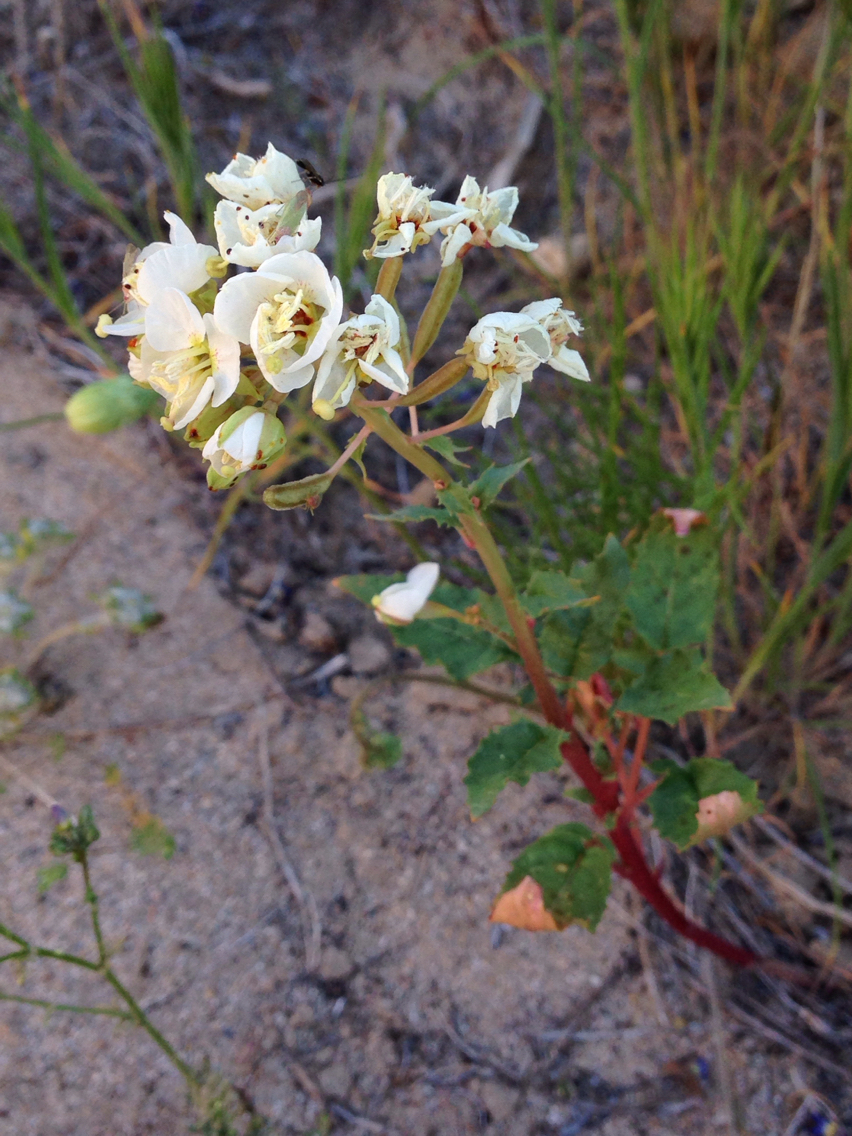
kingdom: Plantae
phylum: Tracheophyta
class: Magnoliopsida
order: Myrtales
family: Onagraceae
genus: Chylismia
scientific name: Chylismia claviformis
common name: Browneyes
